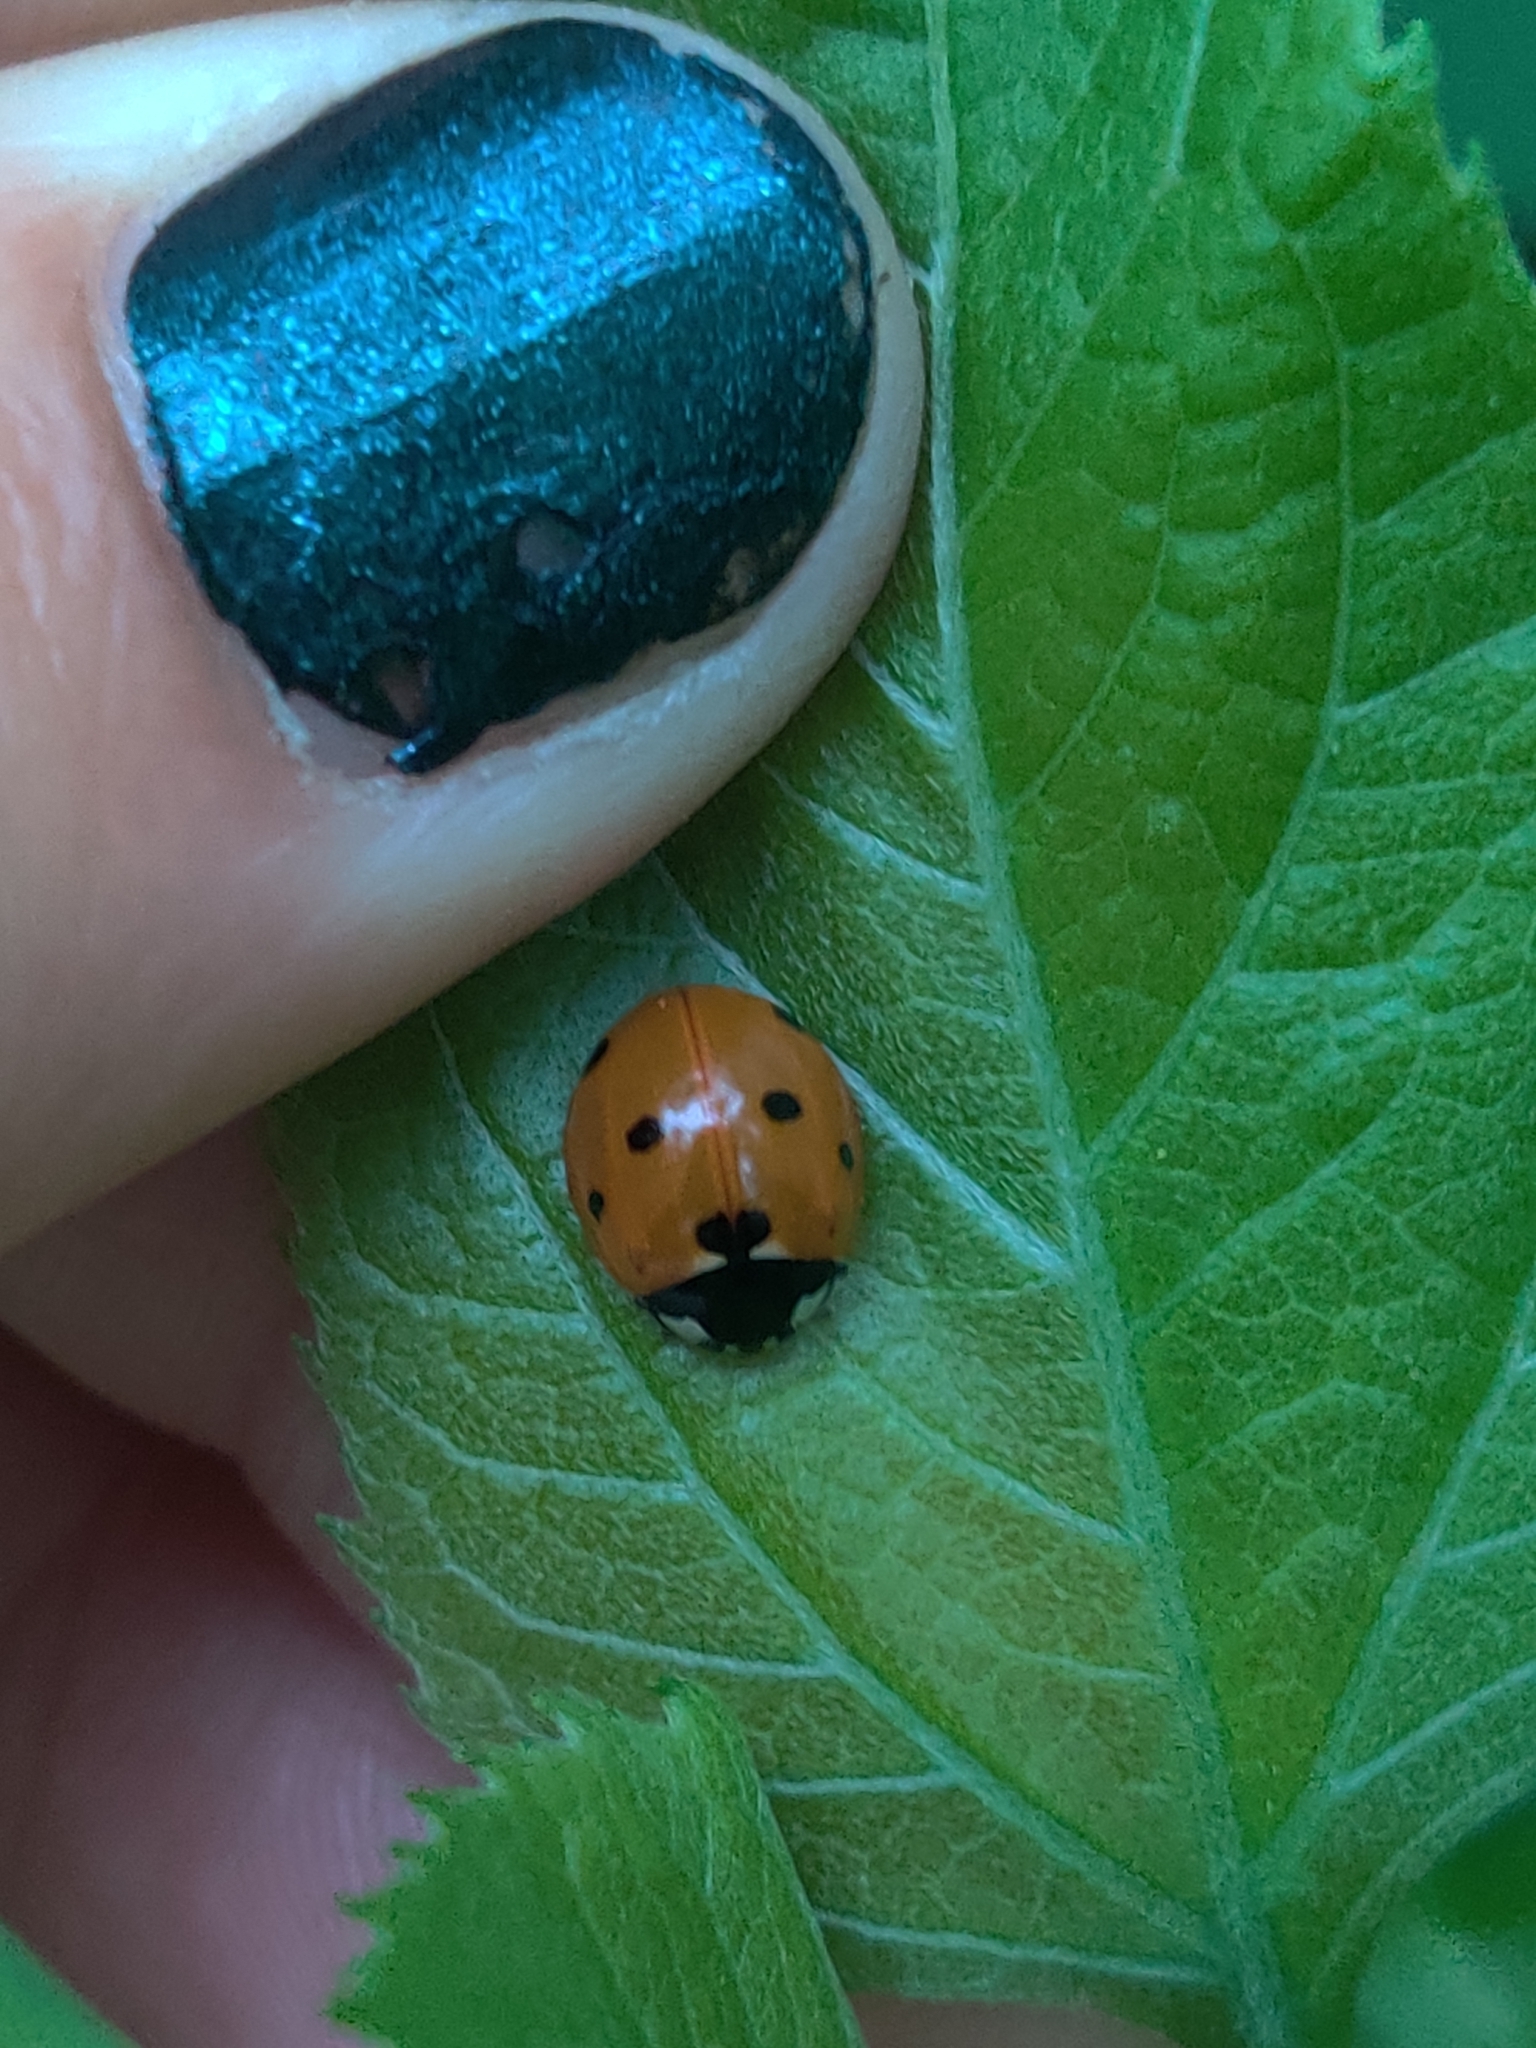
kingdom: Animalia
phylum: Arthropoda
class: Insecta
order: Coleoptera
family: Coccinellidae
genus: Coccinella
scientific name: Coccinella septempunctata
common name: Sevenspotted lady beetle
